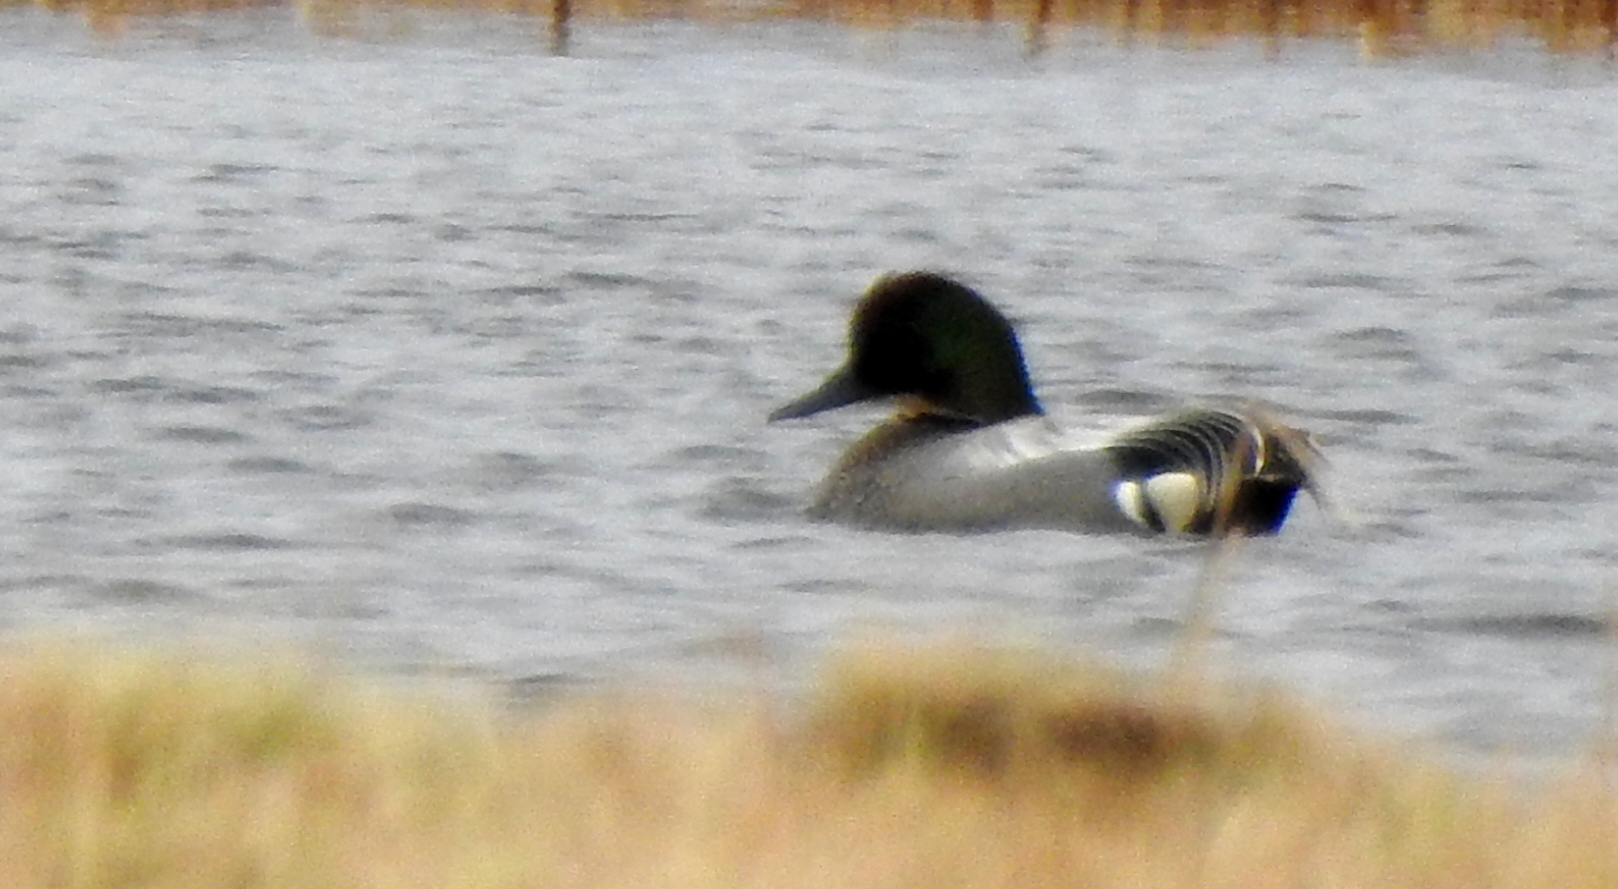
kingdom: Animalia
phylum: Chordata
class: Aves
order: Anseriformes
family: Anatidae
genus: Mareca
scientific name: Mareca falcata
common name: Falcated duck
